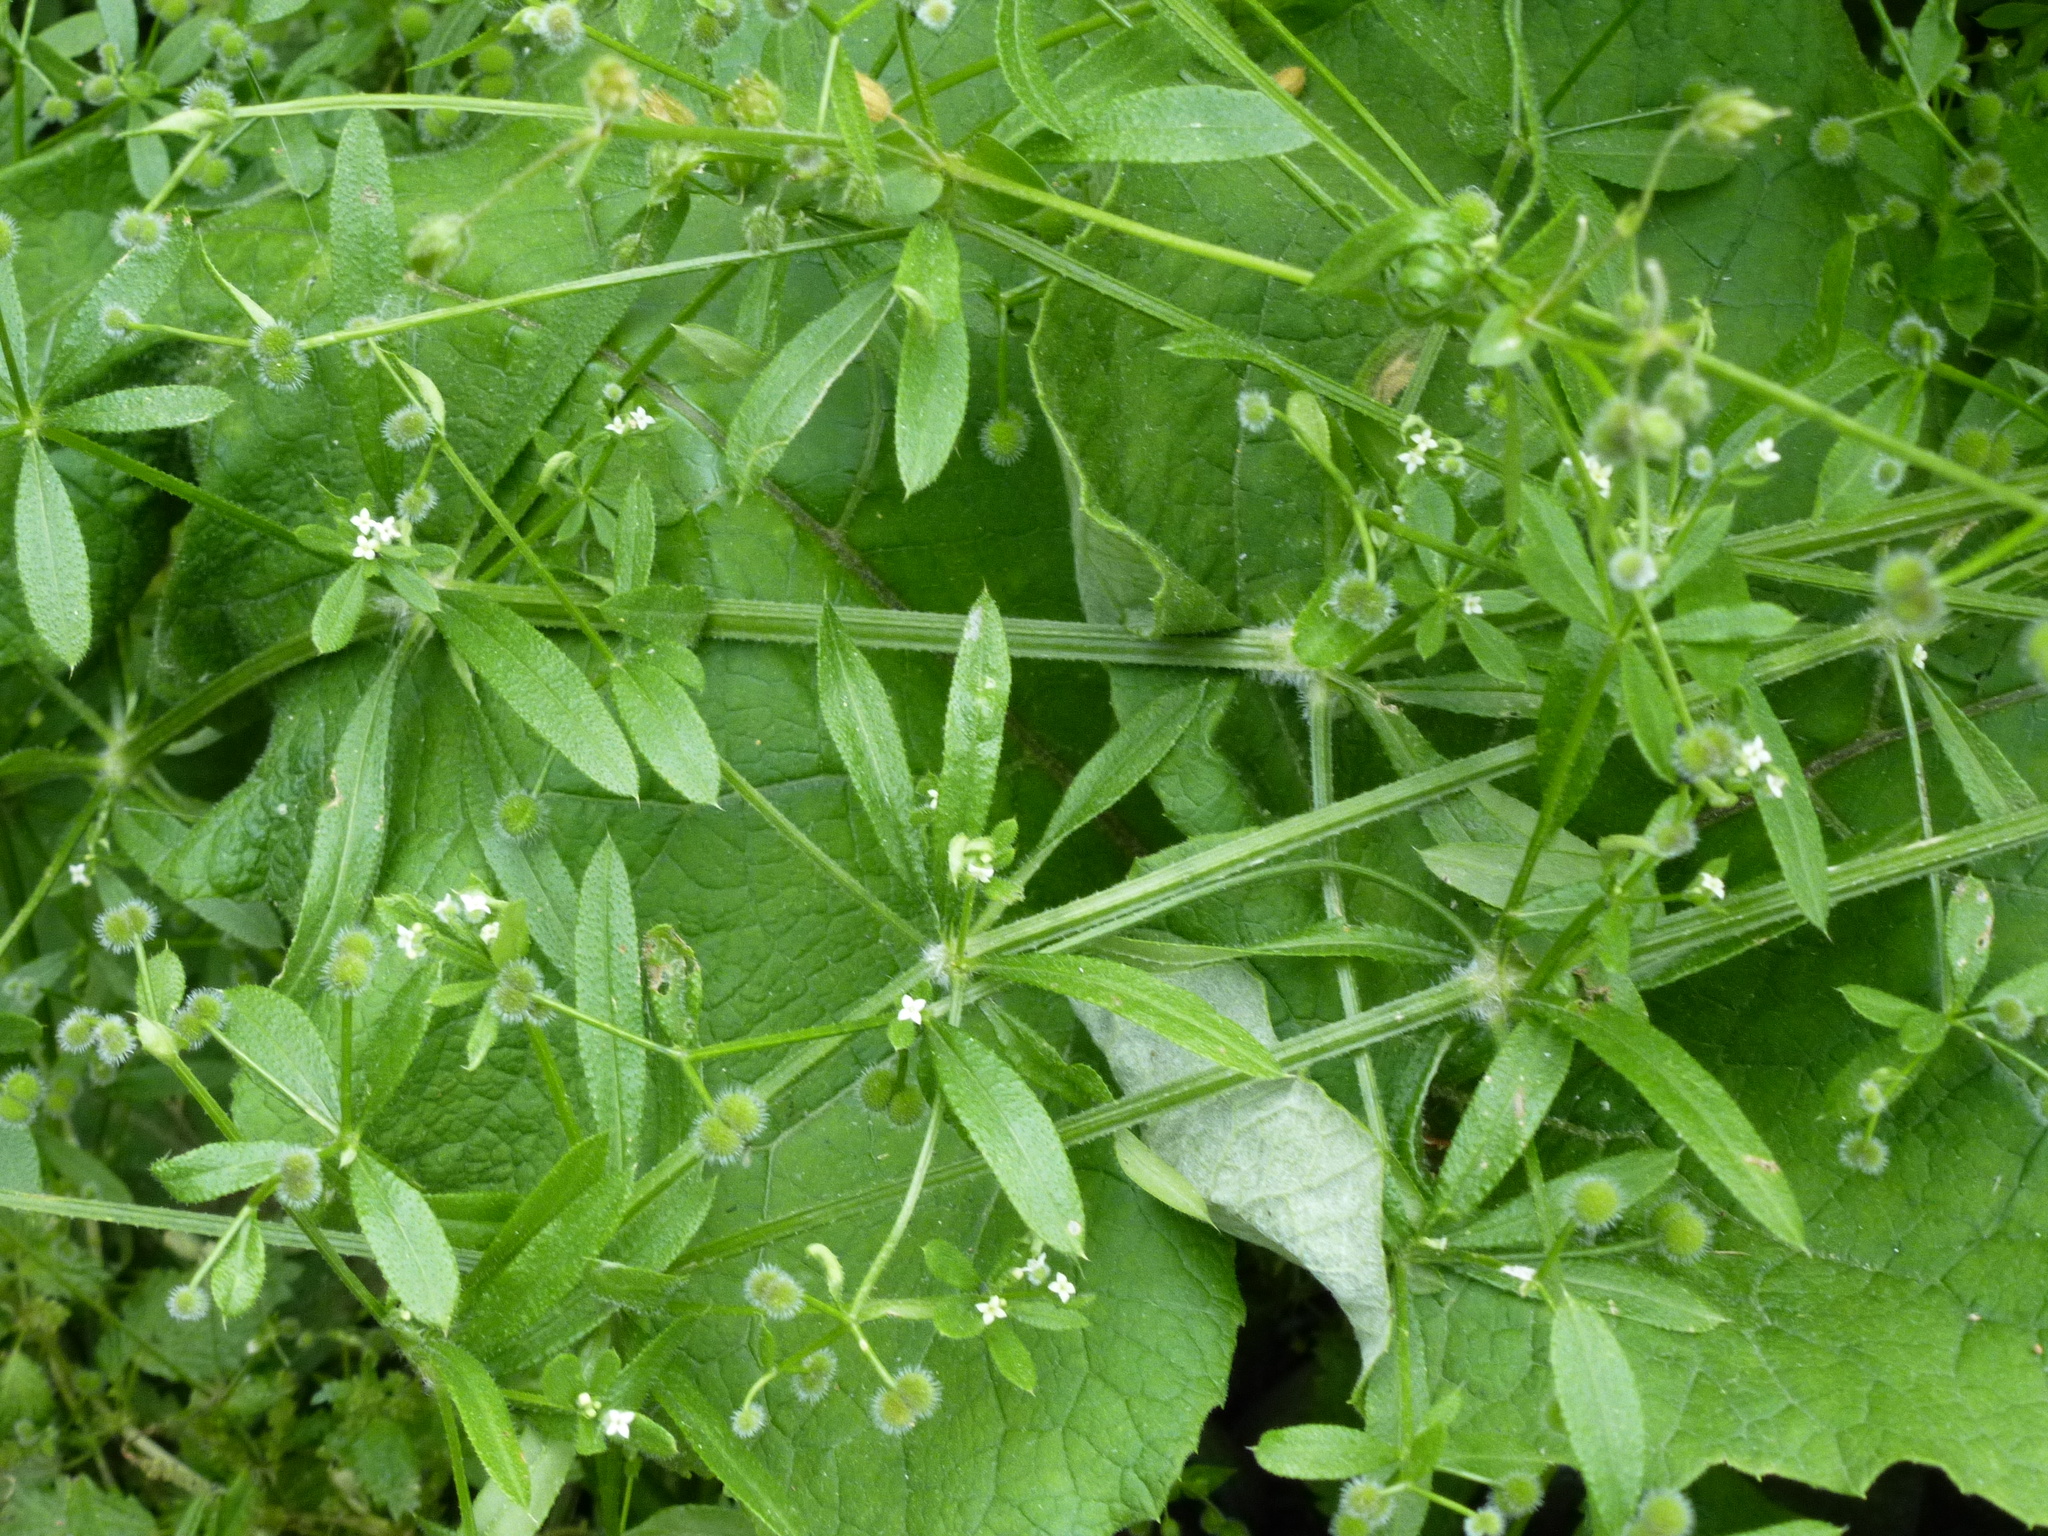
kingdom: Plantae
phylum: Tracheophyta
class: Magnoliopsida
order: Gentianales
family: Rubiaceae
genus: Galium
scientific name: Galium aparine
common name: Cleavers
